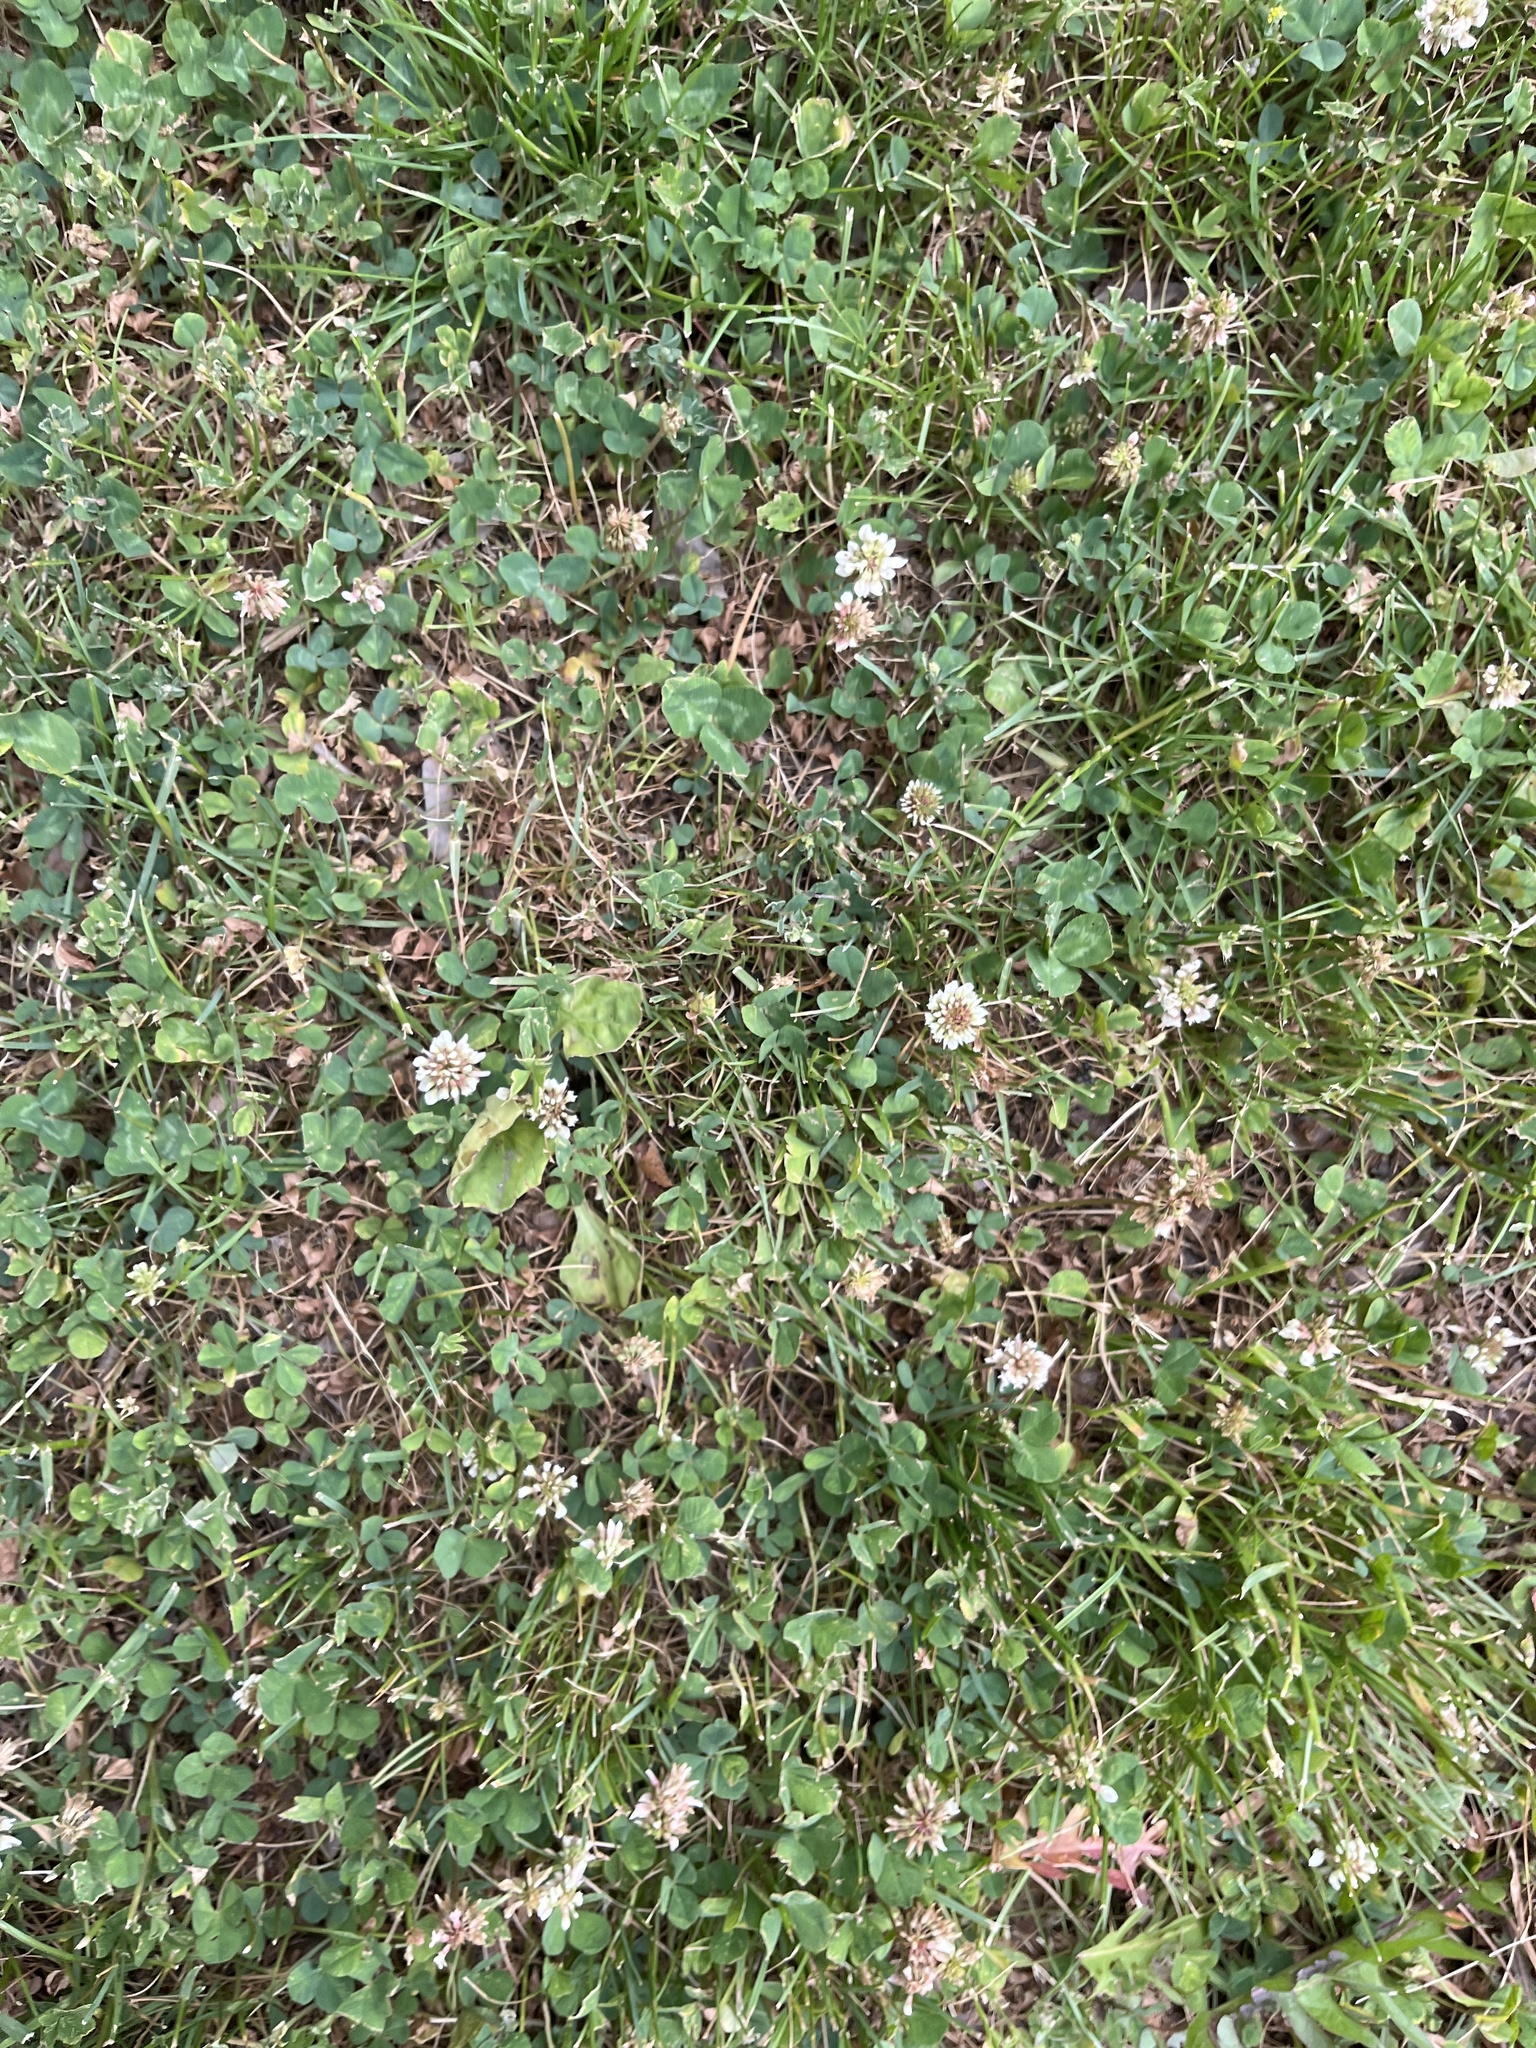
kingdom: Plantae
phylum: Tracheophyta
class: Magnoliopsida
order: Fabales
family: Fabaceae
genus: Trifolium
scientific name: Trifolium repens
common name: White clover
